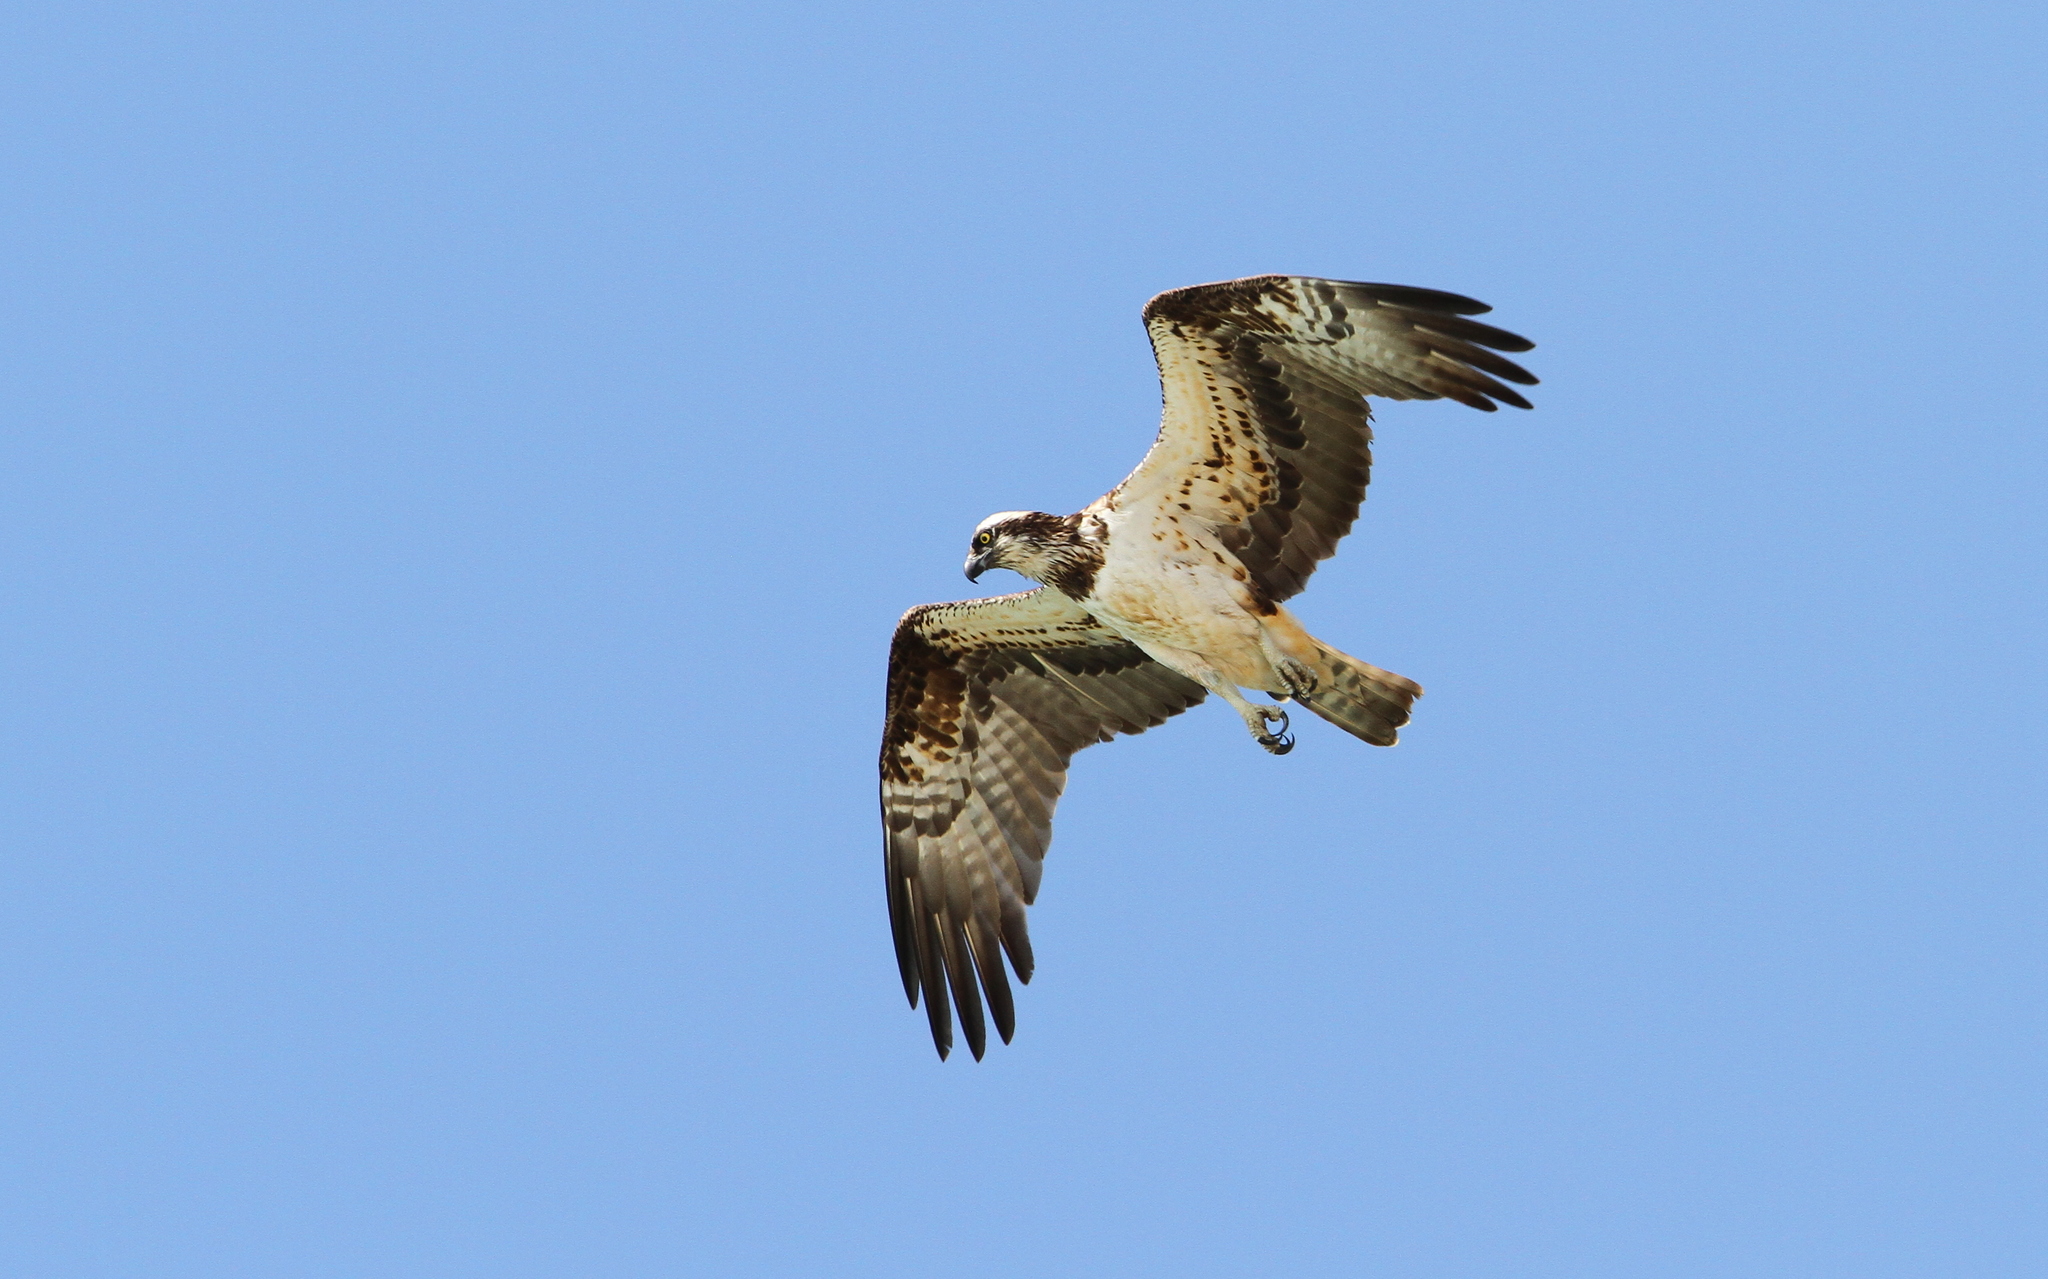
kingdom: Animalia
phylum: Chordata
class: Aves
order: Accipitriformes
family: Pandionidae
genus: Pandion
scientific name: Pandion haliaetus
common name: Osprey
